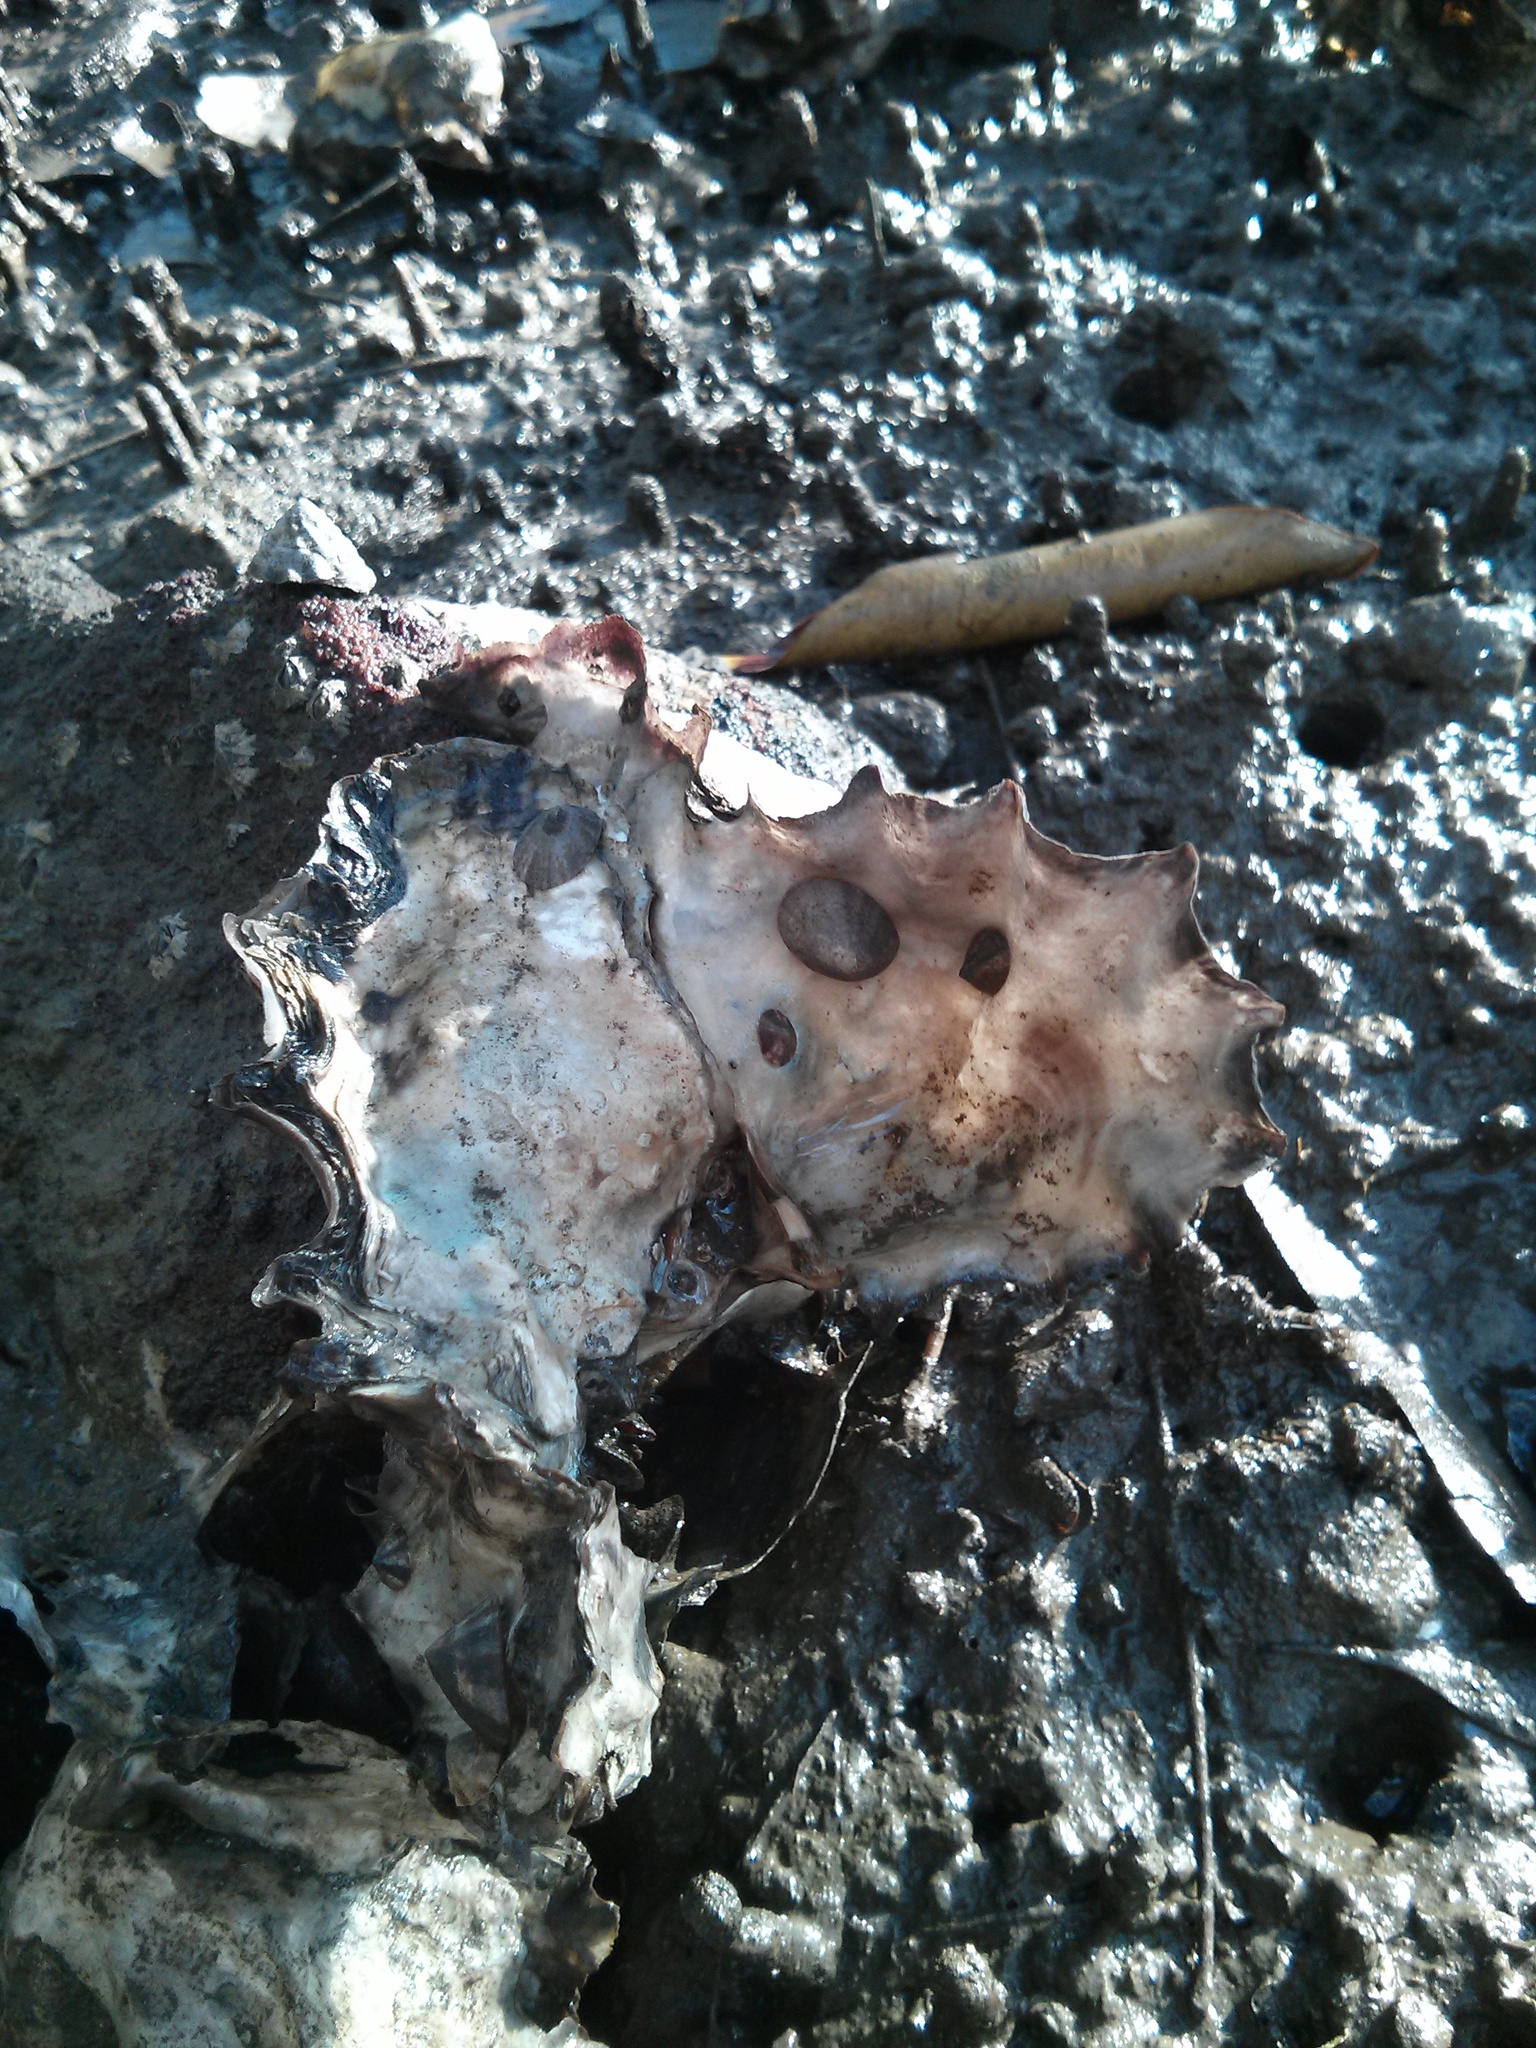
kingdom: Animalia
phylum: Mollusca
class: Bivalvia
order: Ostreida
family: Ostreidae
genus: Saccostrea
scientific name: Saccostrea glomerata
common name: Sydney cupped oyster
